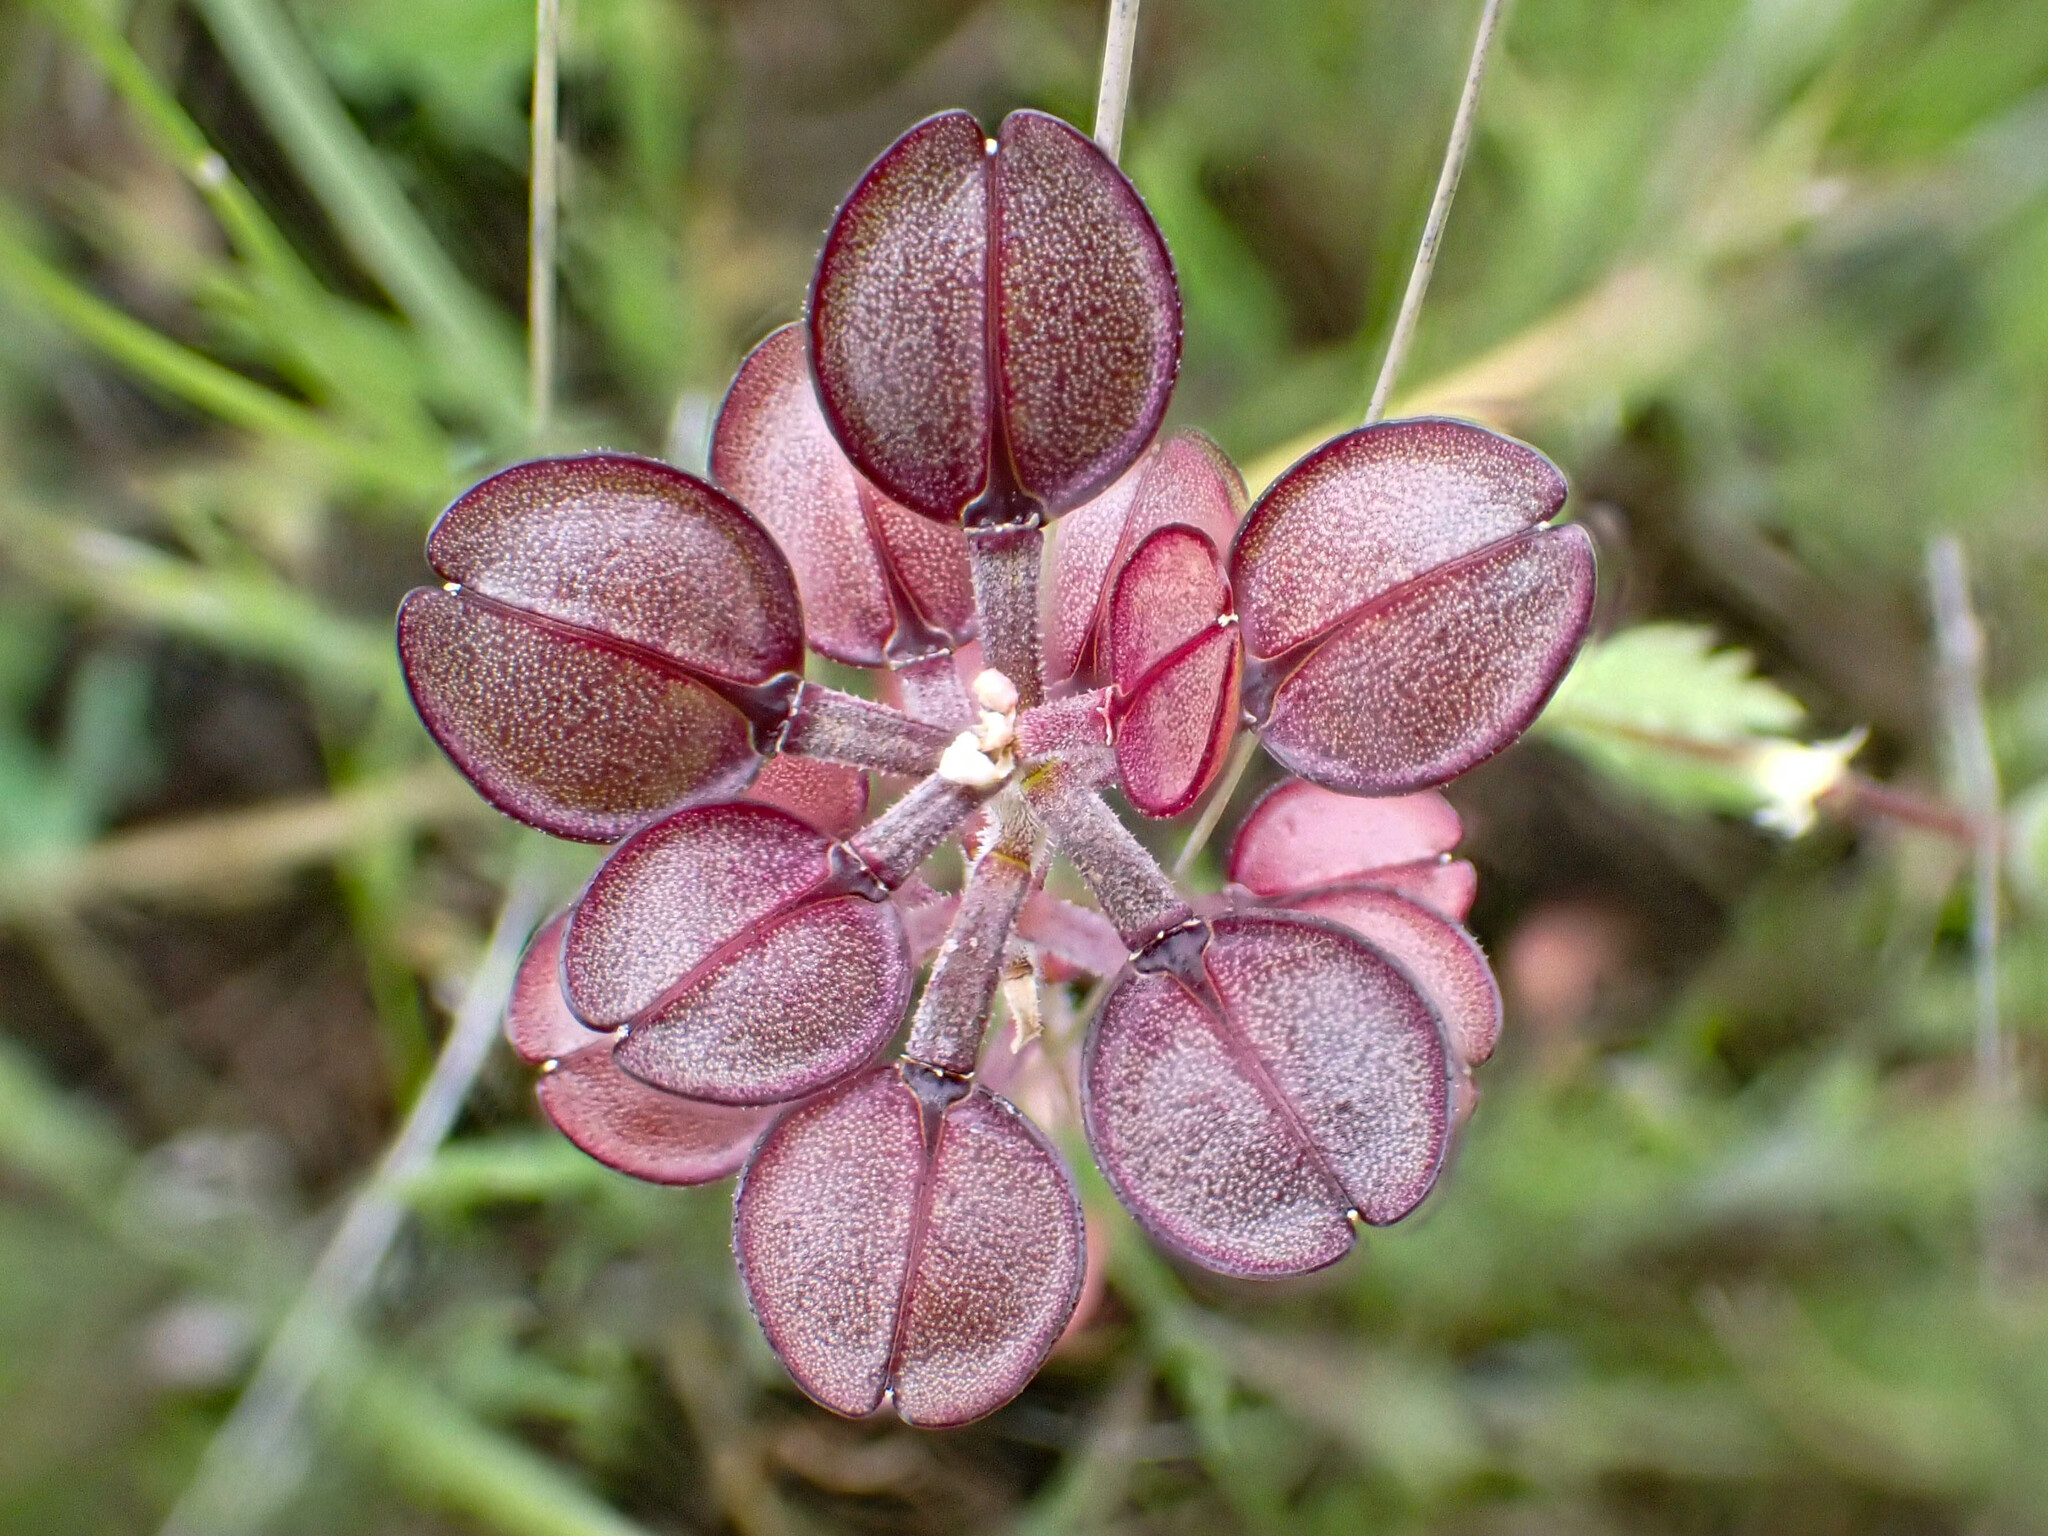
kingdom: Plantae
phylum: Tracheophyta
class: Magnoliopsida
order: Brassicales
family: Brassicaceae
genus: Lepidium
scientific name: Lepidium nitidum
